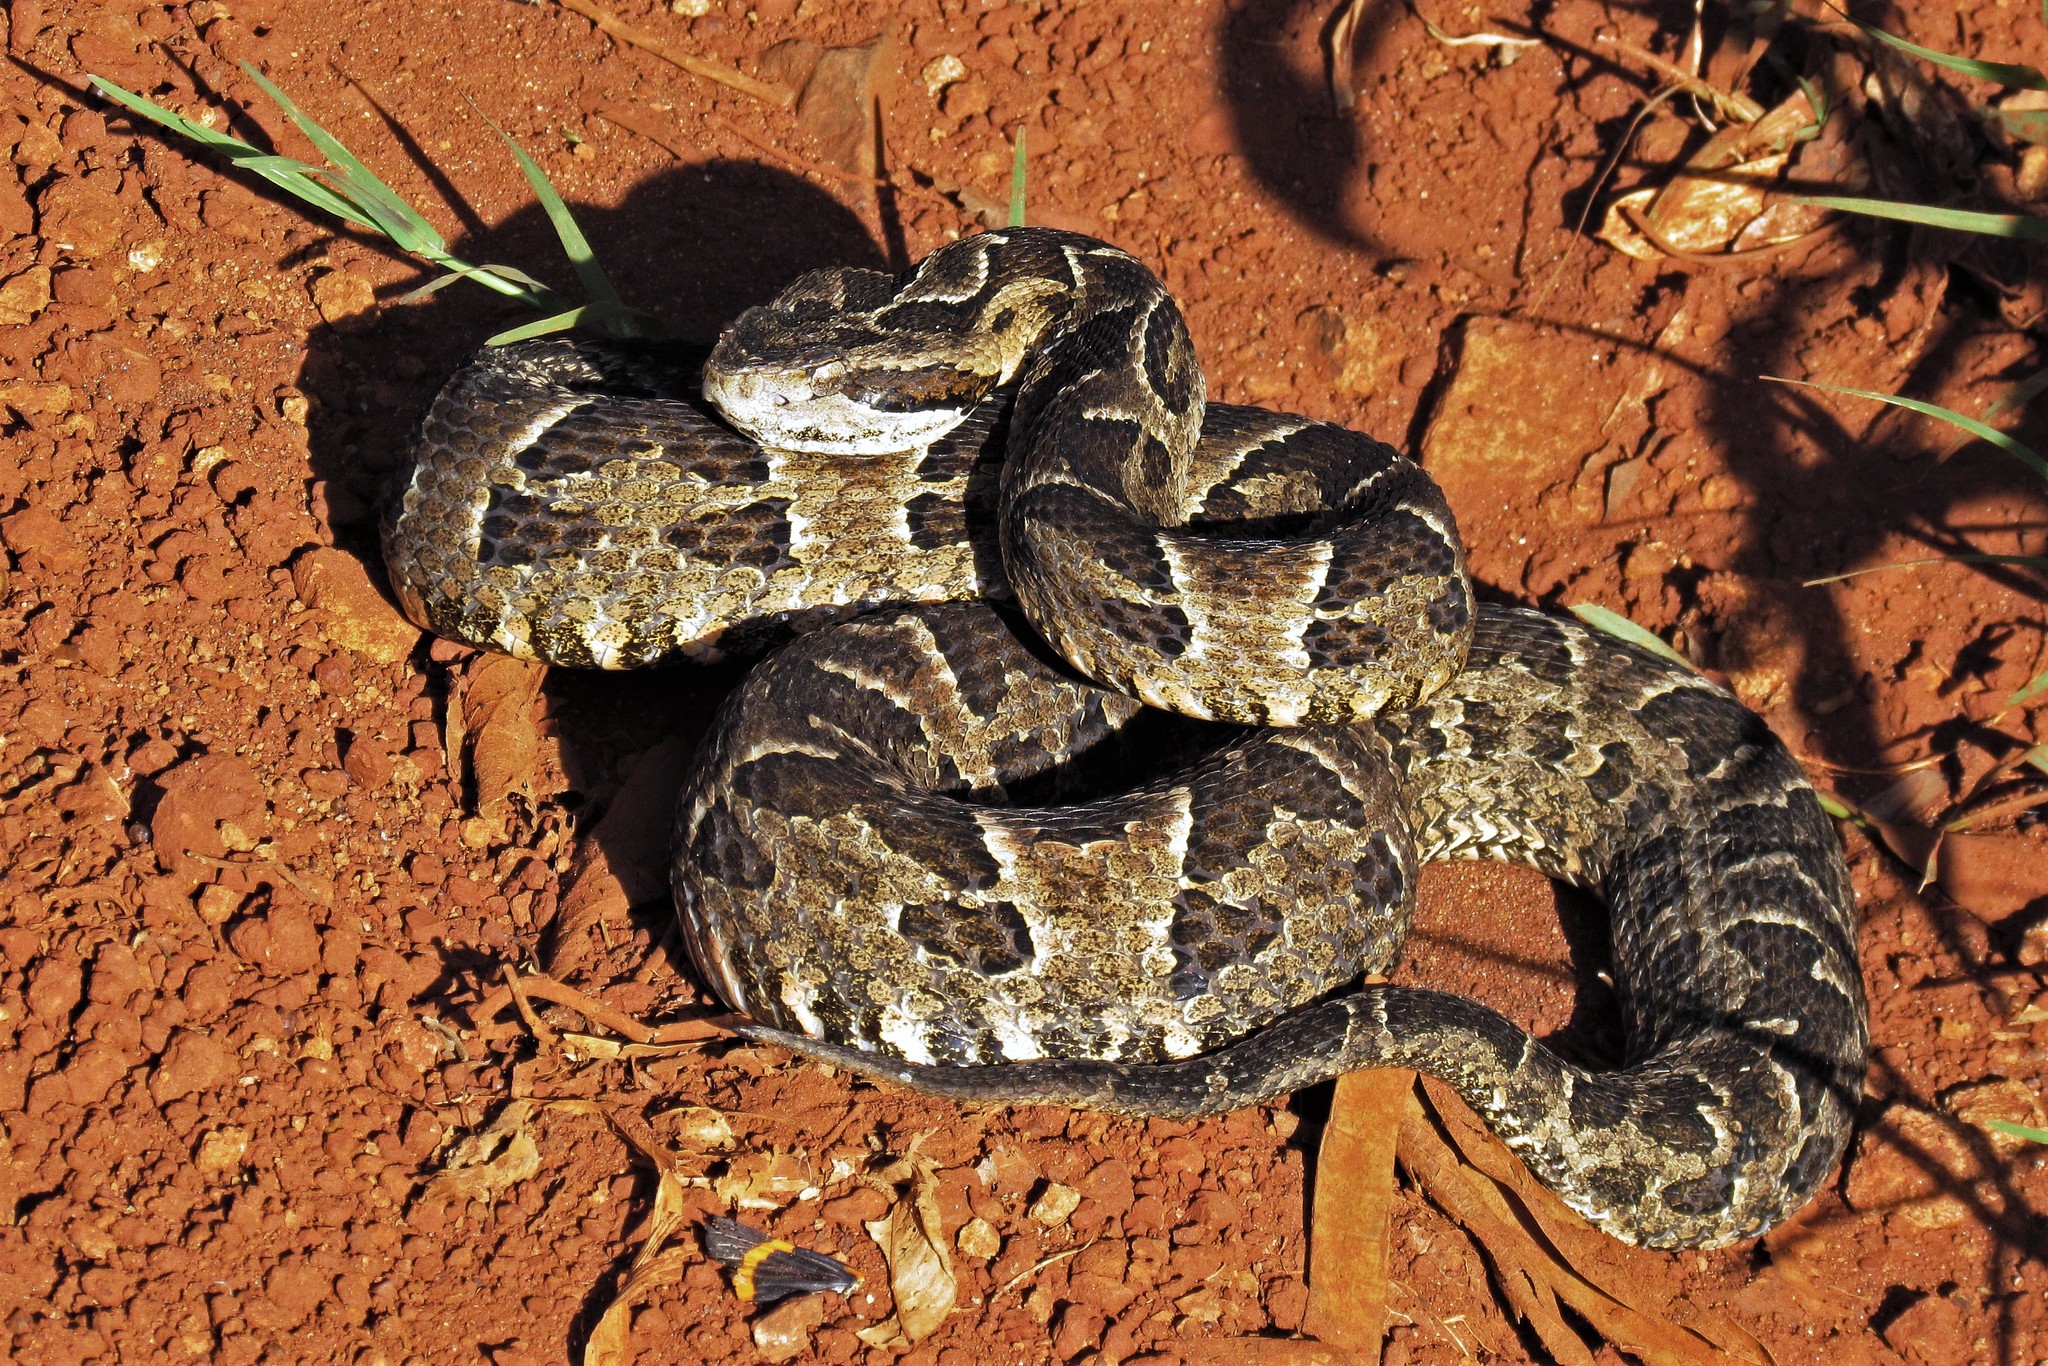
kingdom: Animalia
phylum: Chordata
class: Squamata
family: Viperidae
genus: Bothrops
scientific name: Bothrops pubescens
